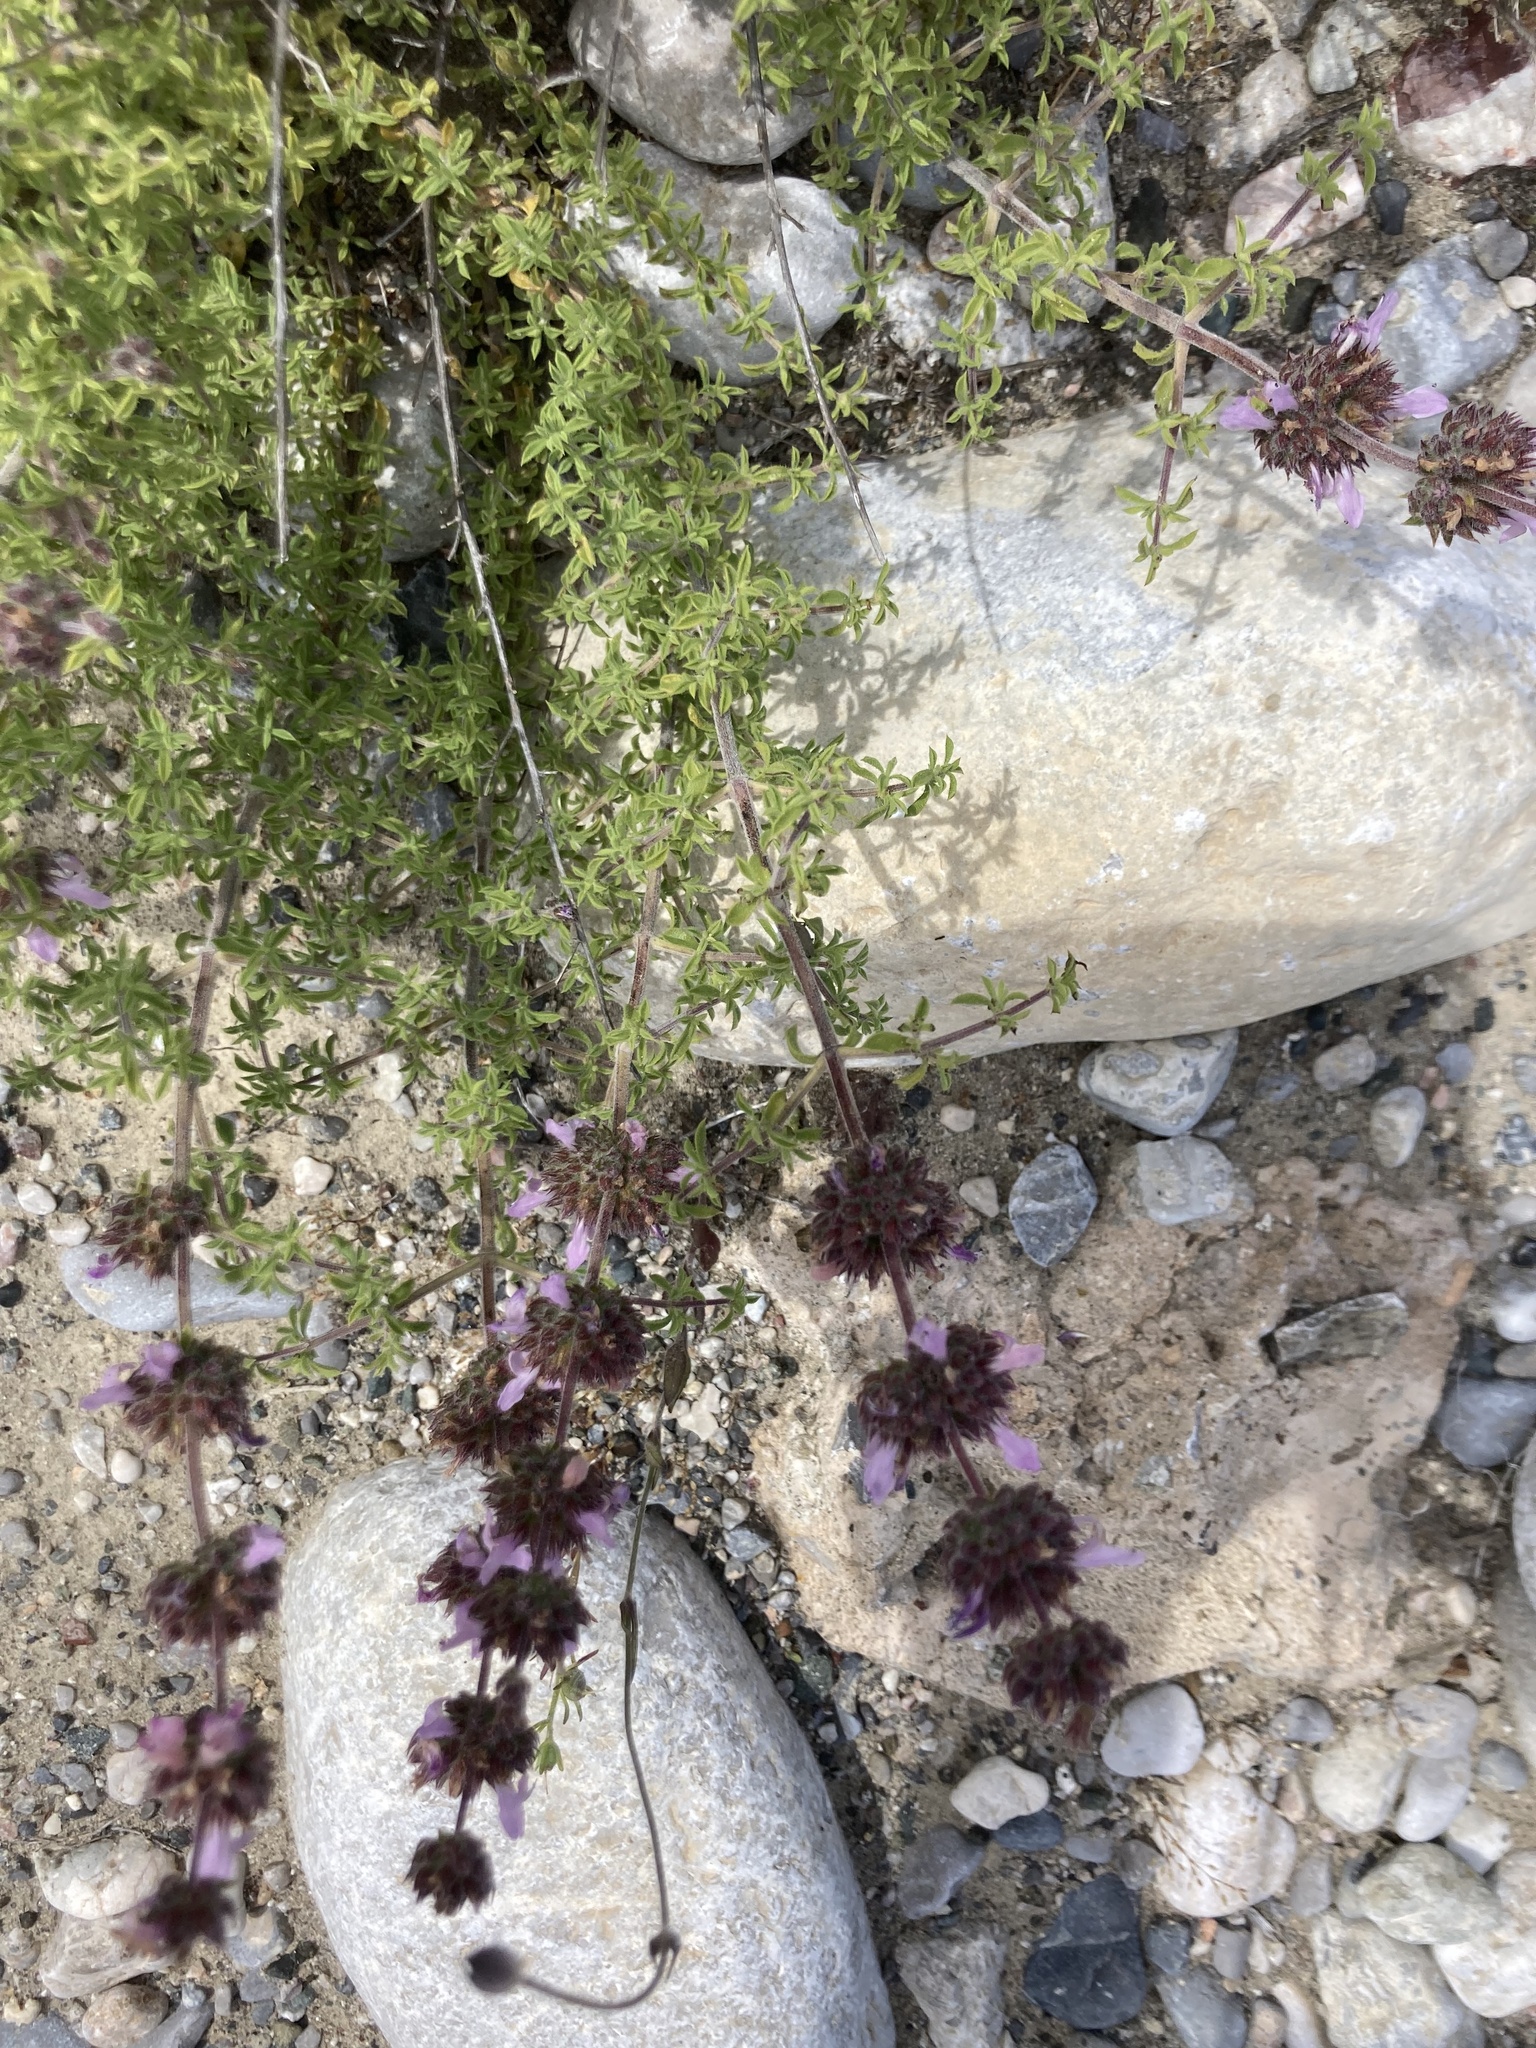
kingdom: Plantae
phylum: Tracheophyta
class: Magnoliopsida
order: Lamiales
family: Lamiaceae
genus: Satureja
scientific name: Satureja thymbra
